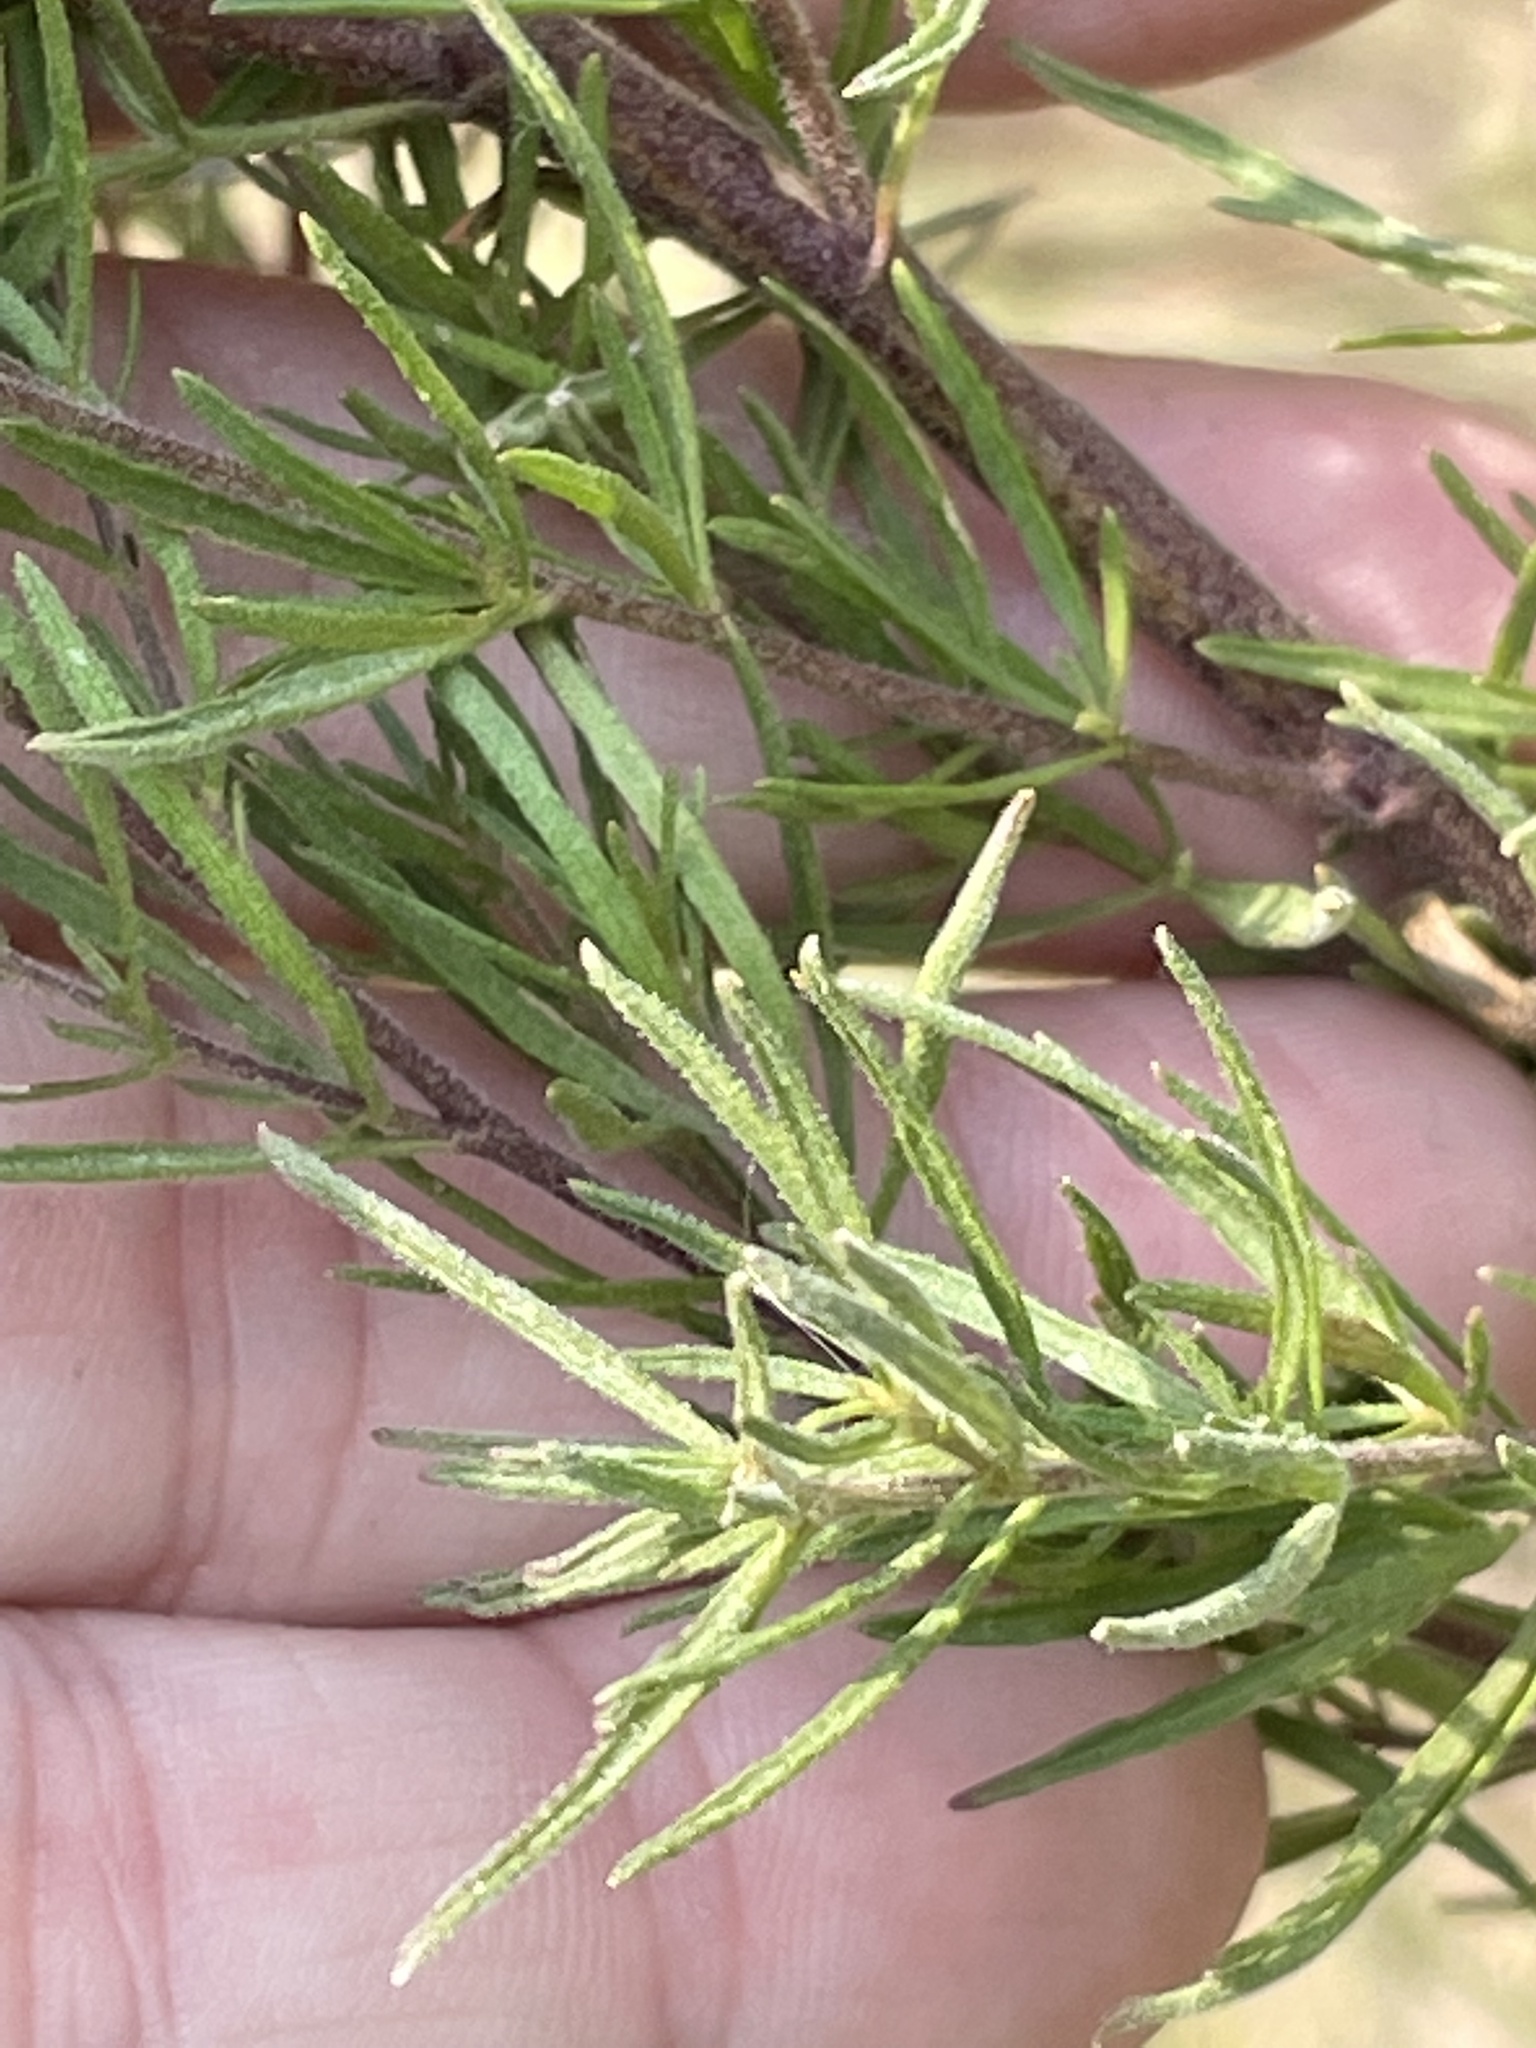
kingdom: Plantae
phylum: Tracheophyta
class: Magnoliopsida
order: Asterales
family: Asteraceae
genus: Eupatorium
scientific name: Eupatorium compositifolium
